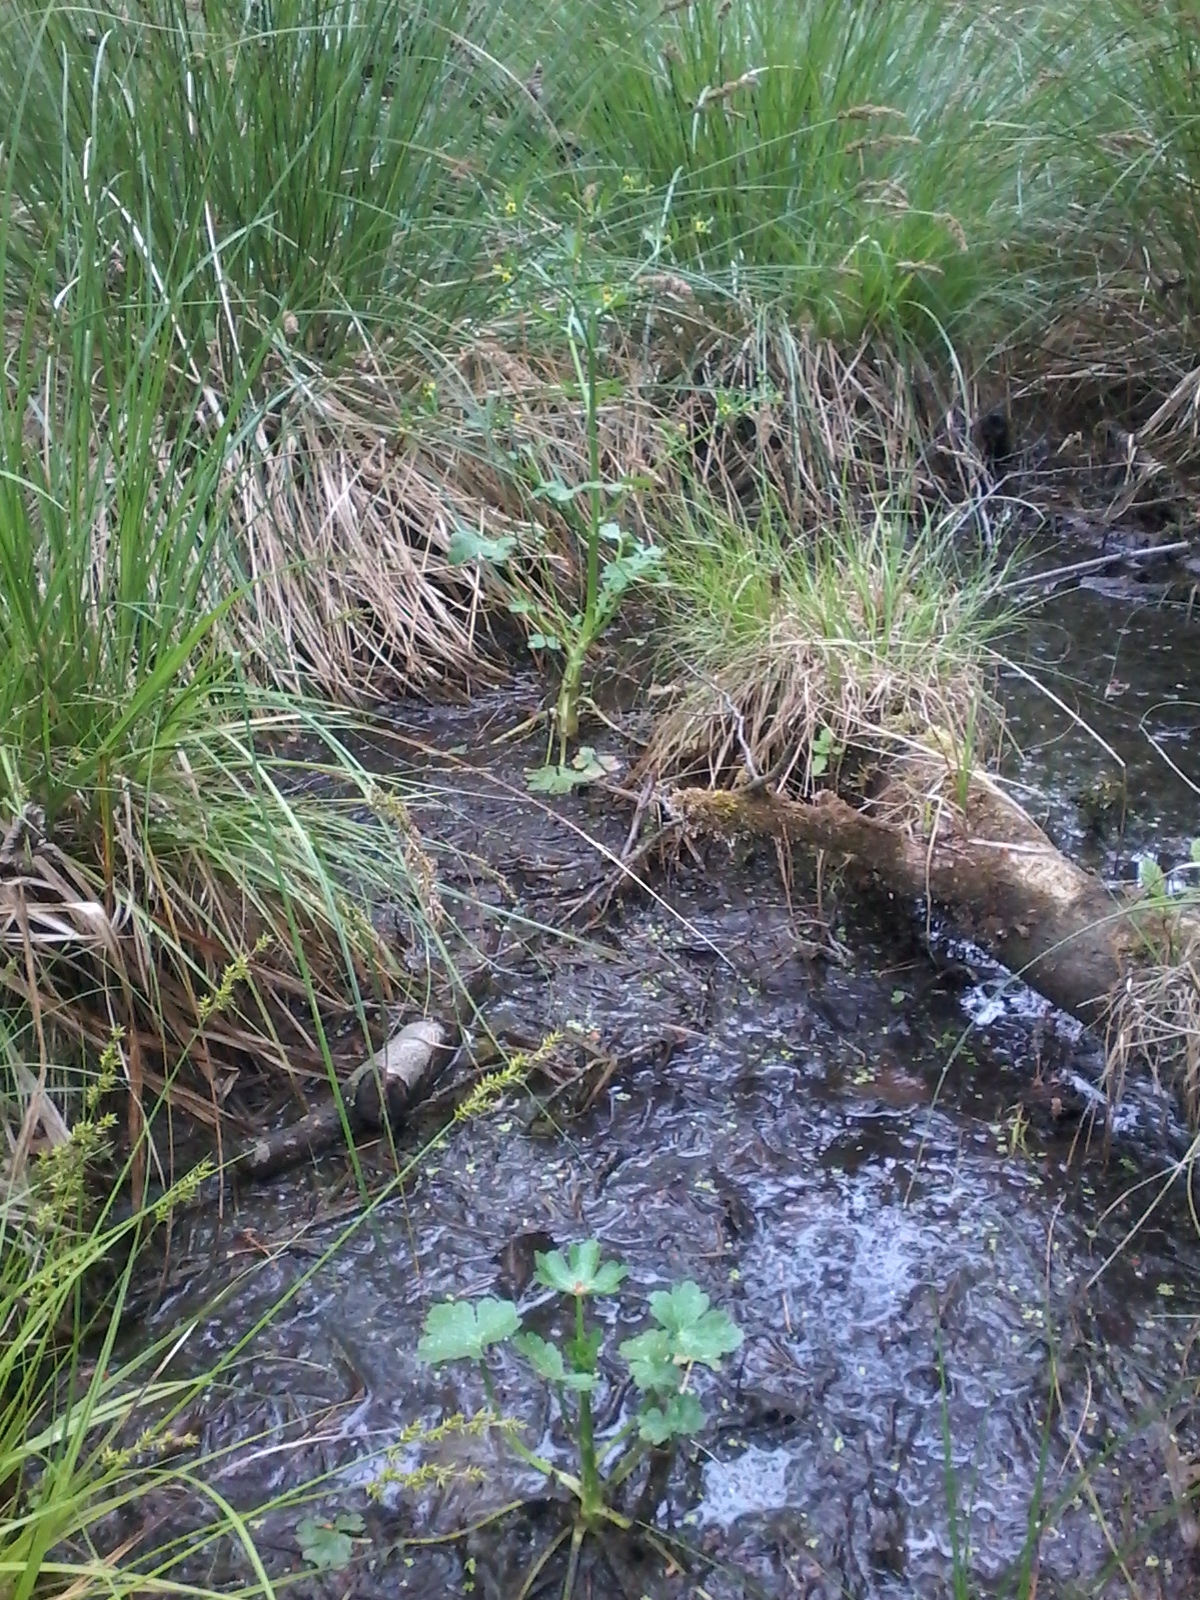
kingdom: Plantae
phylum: Tracheophyta
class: Magnoliopsida
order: Ranunculales
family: Ranunculaceae
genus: Ranunculus
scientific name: Ranunculus sceleratus
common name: Celery-leaved buttercup
